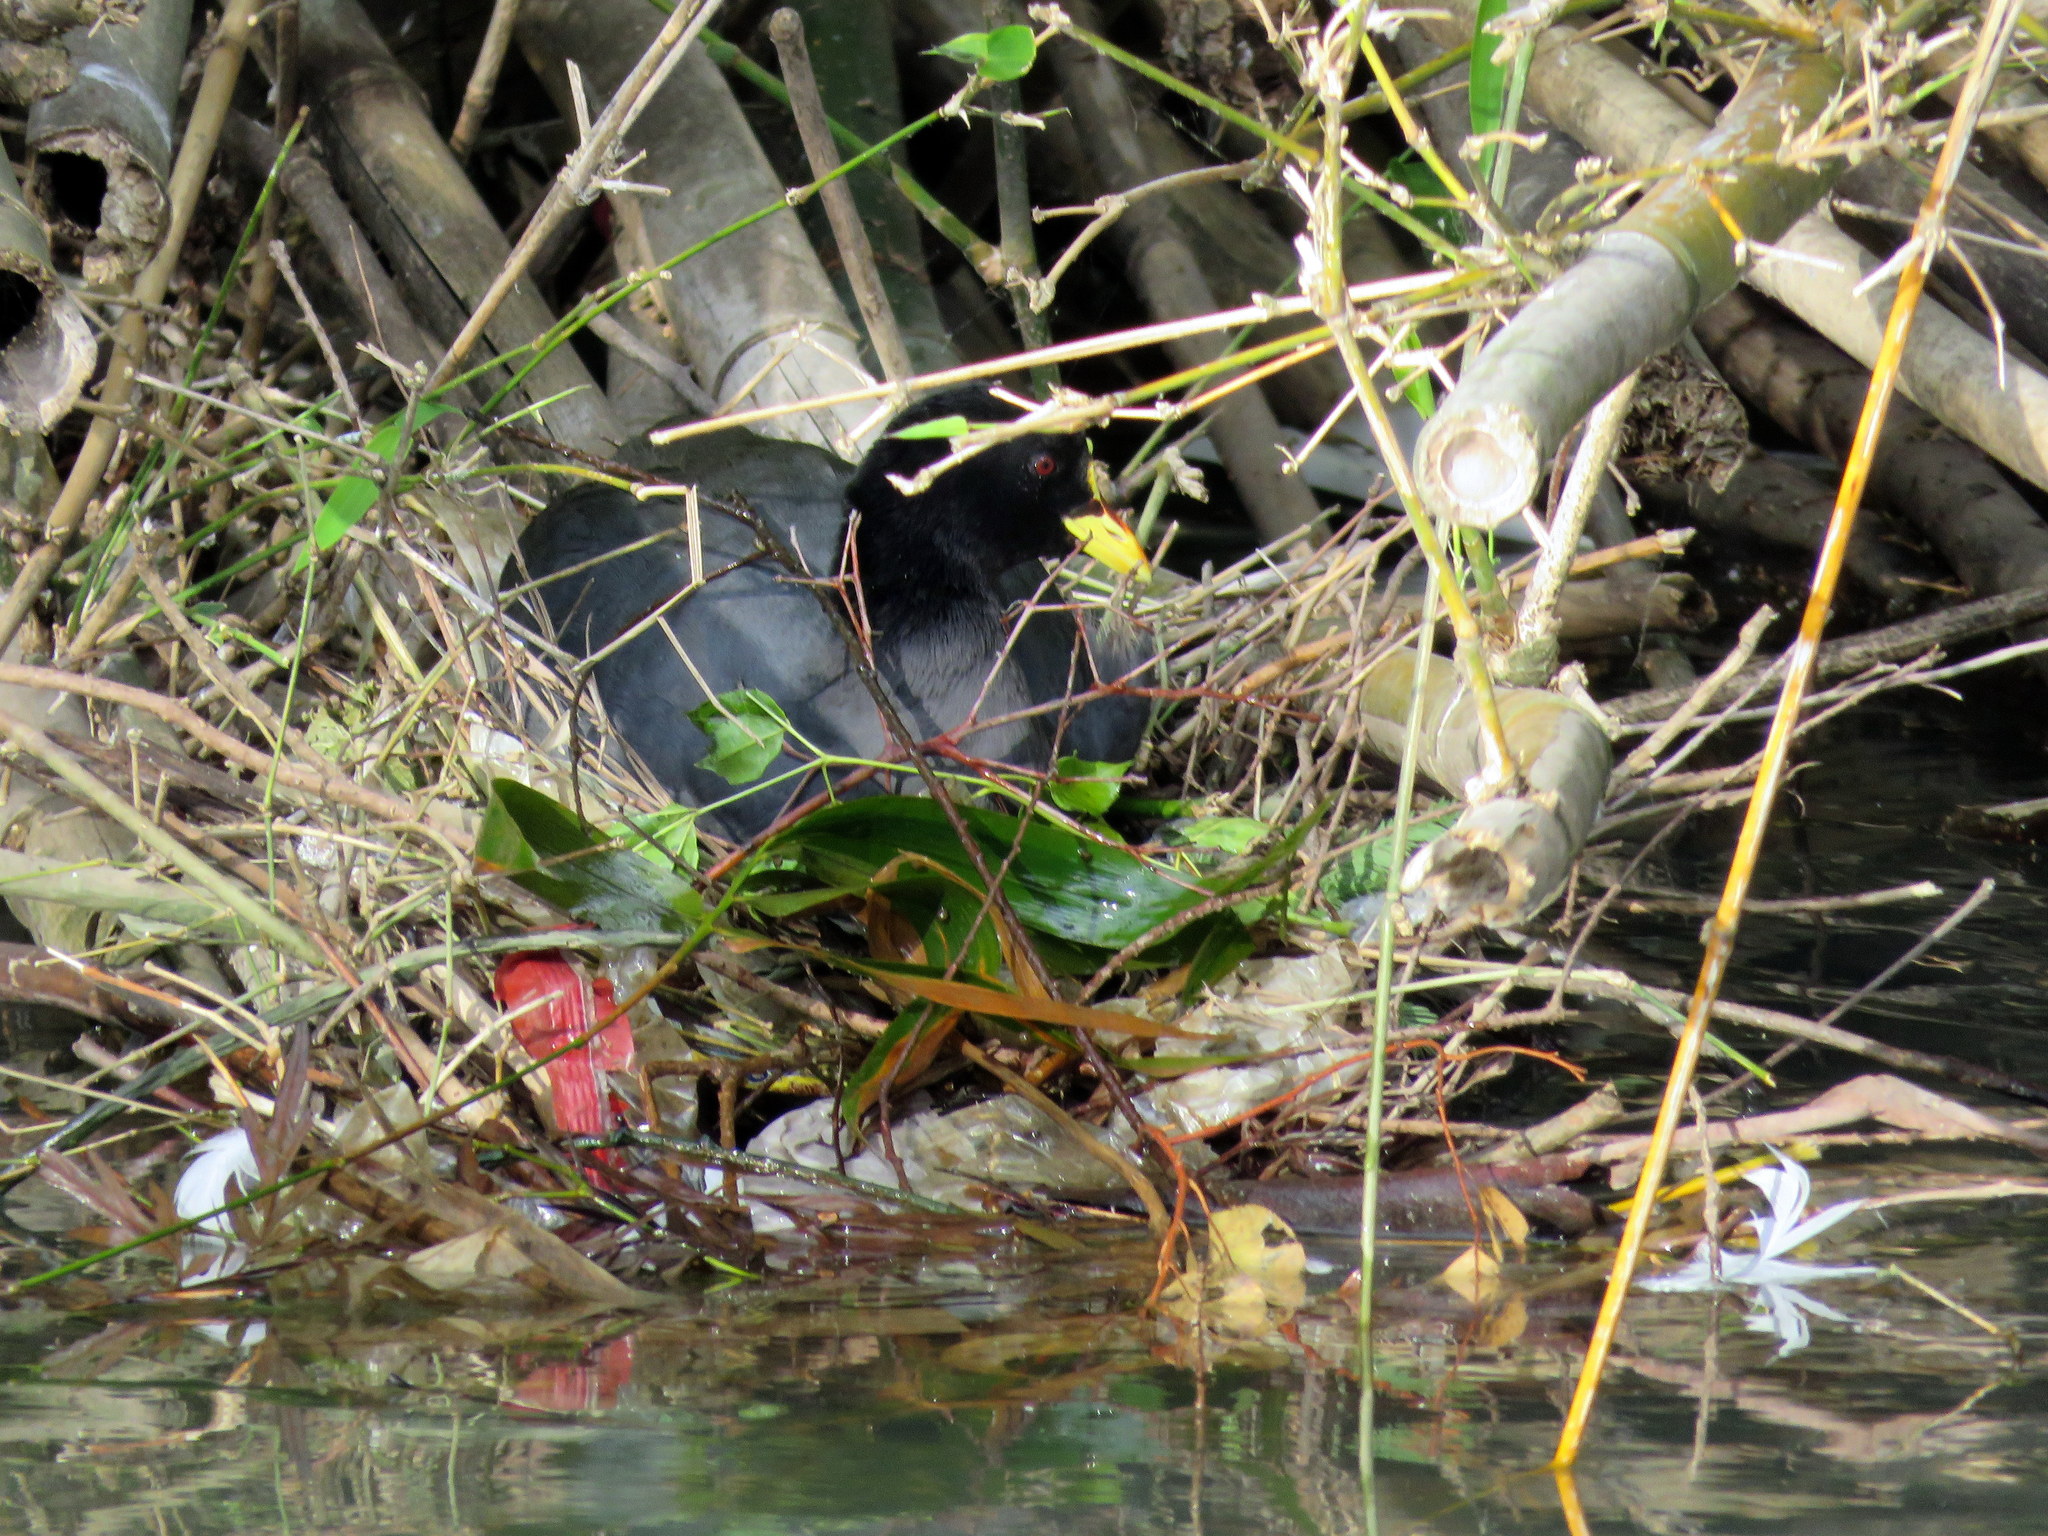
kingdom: Animalia
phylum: Chordata
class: Aves
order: Gruiformes
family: Rallidae
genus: Fulica
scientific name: Fulica armillata
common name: Red-gartered coot
